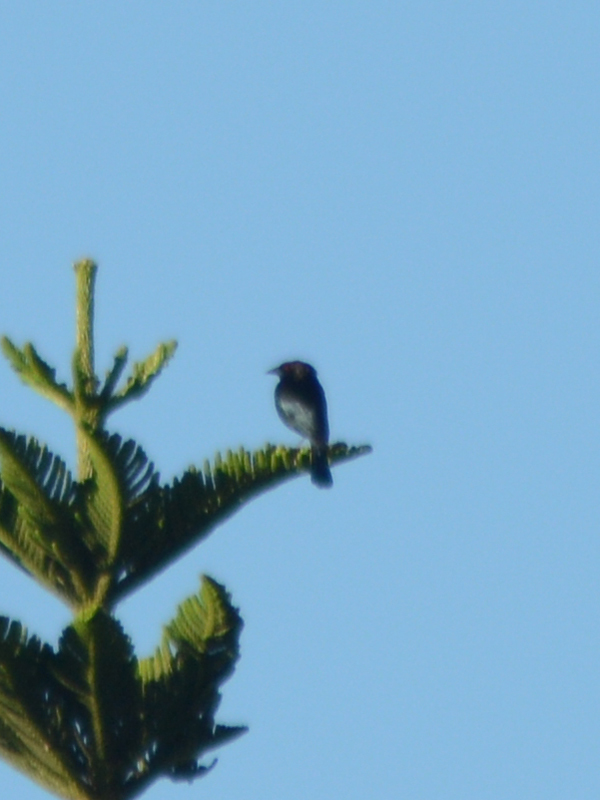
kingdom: Animalia
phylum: Chordata
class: Aves
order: Passeriformes
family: Icteridae
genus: Molothrus
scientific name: Molothrus aeneus
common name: Bronzed cowbird
